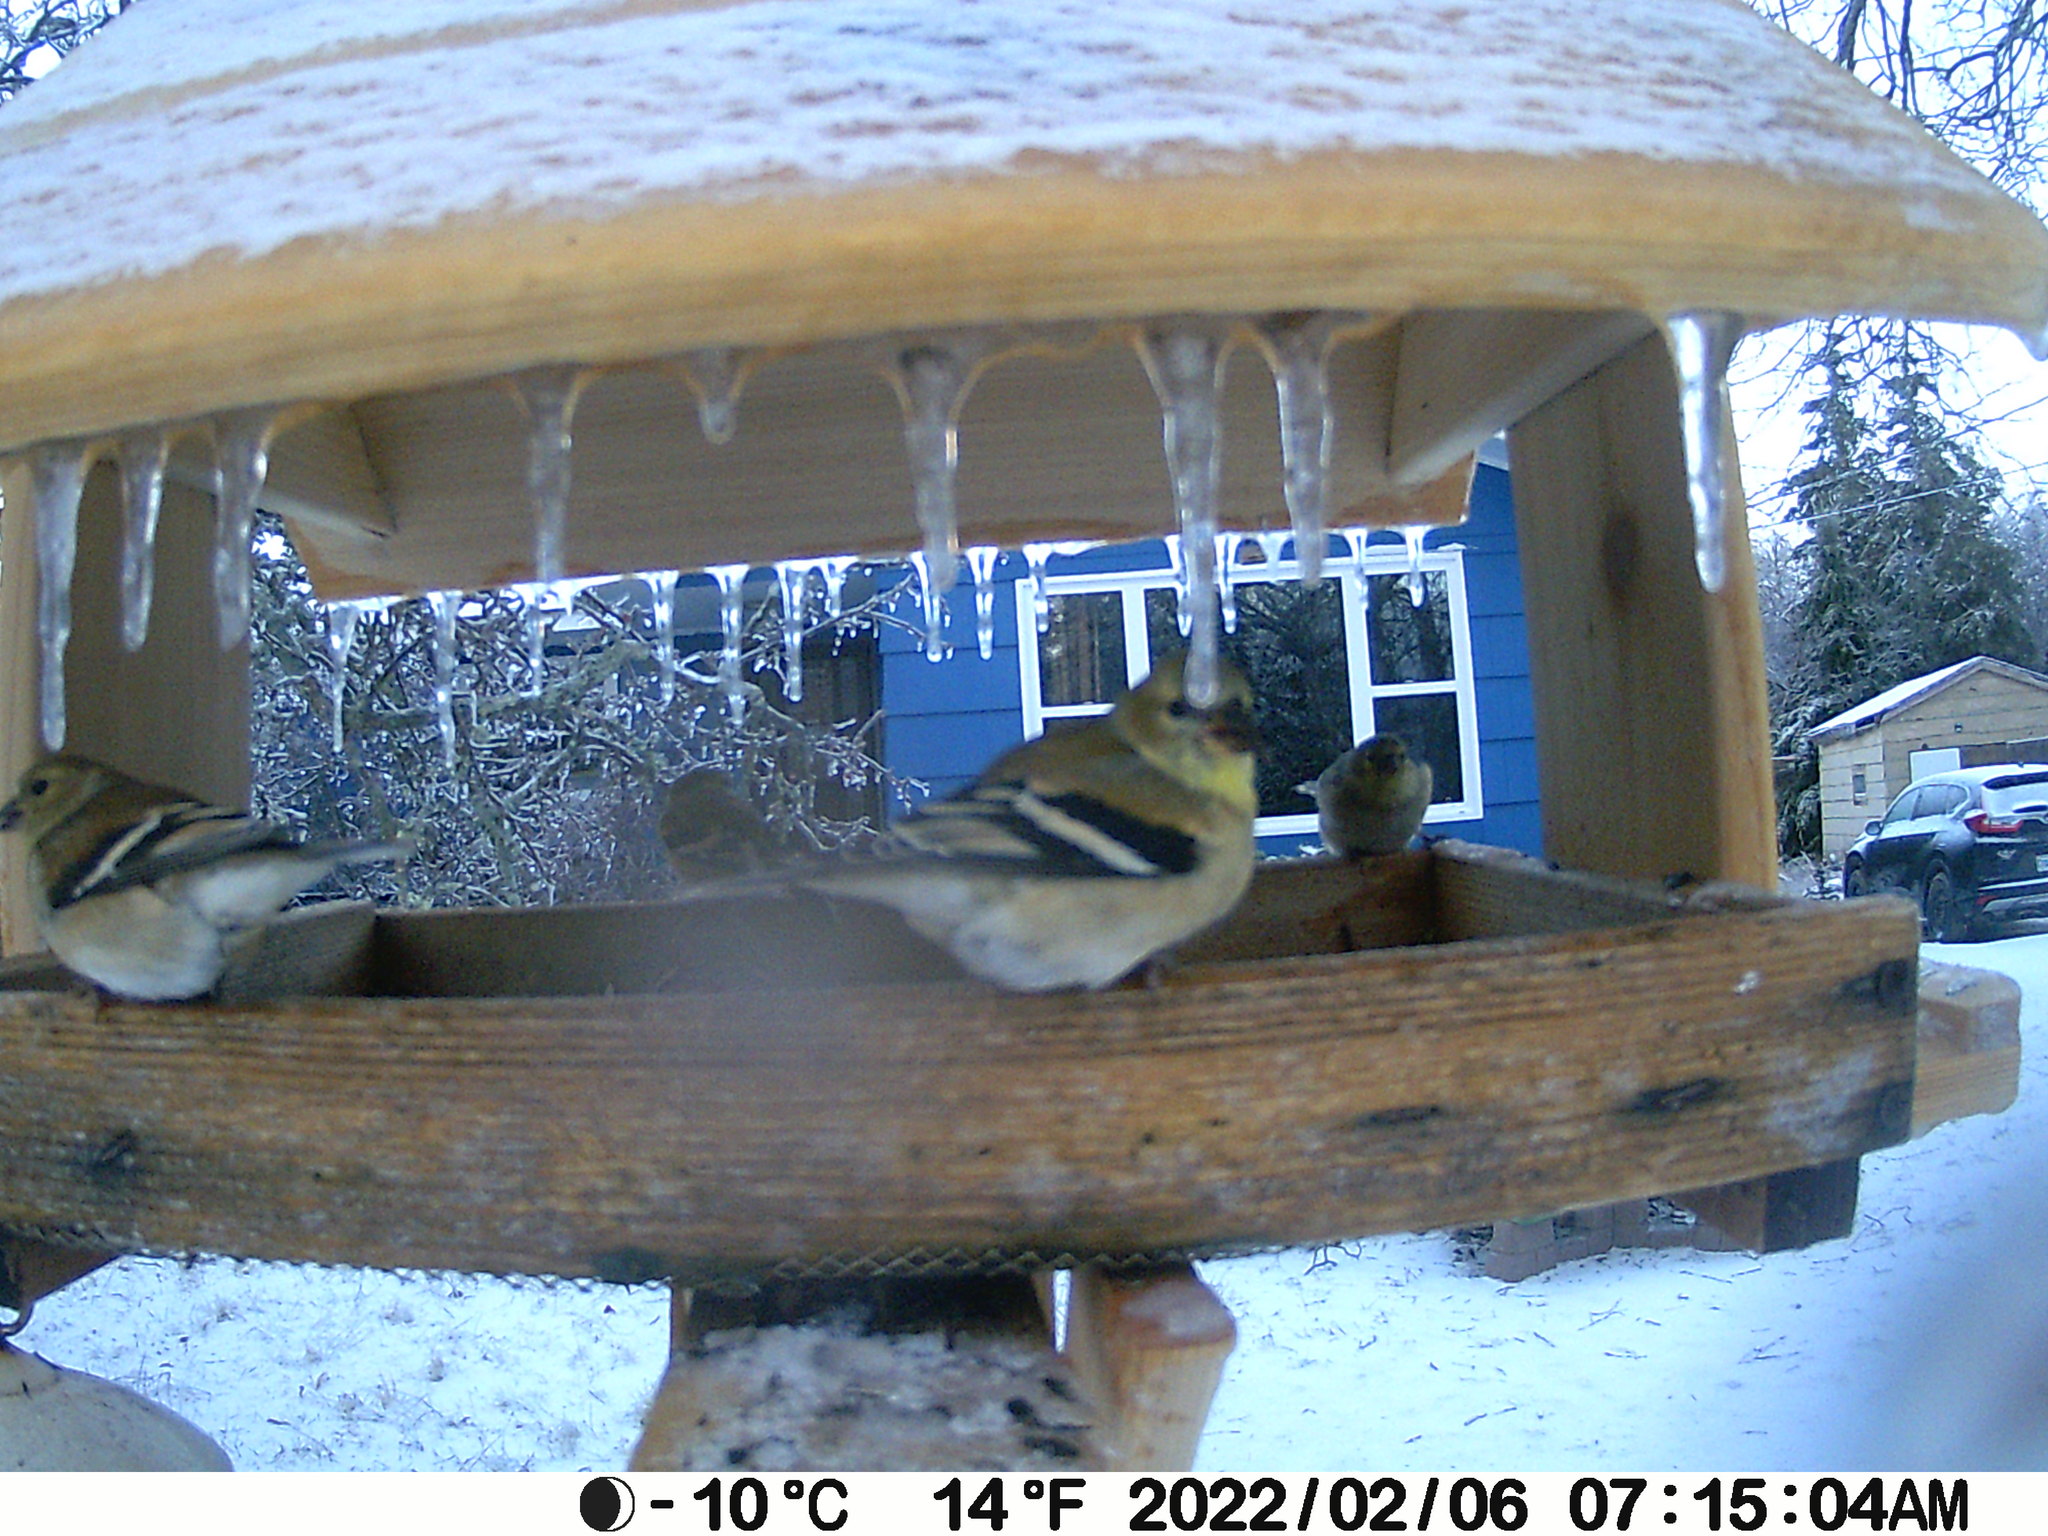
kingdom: Animalia
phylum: Chordata
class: Aves
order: Passeriformes
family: Fringillidae
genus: Spinus
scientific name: Spinus tristis
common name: American goldfinch
